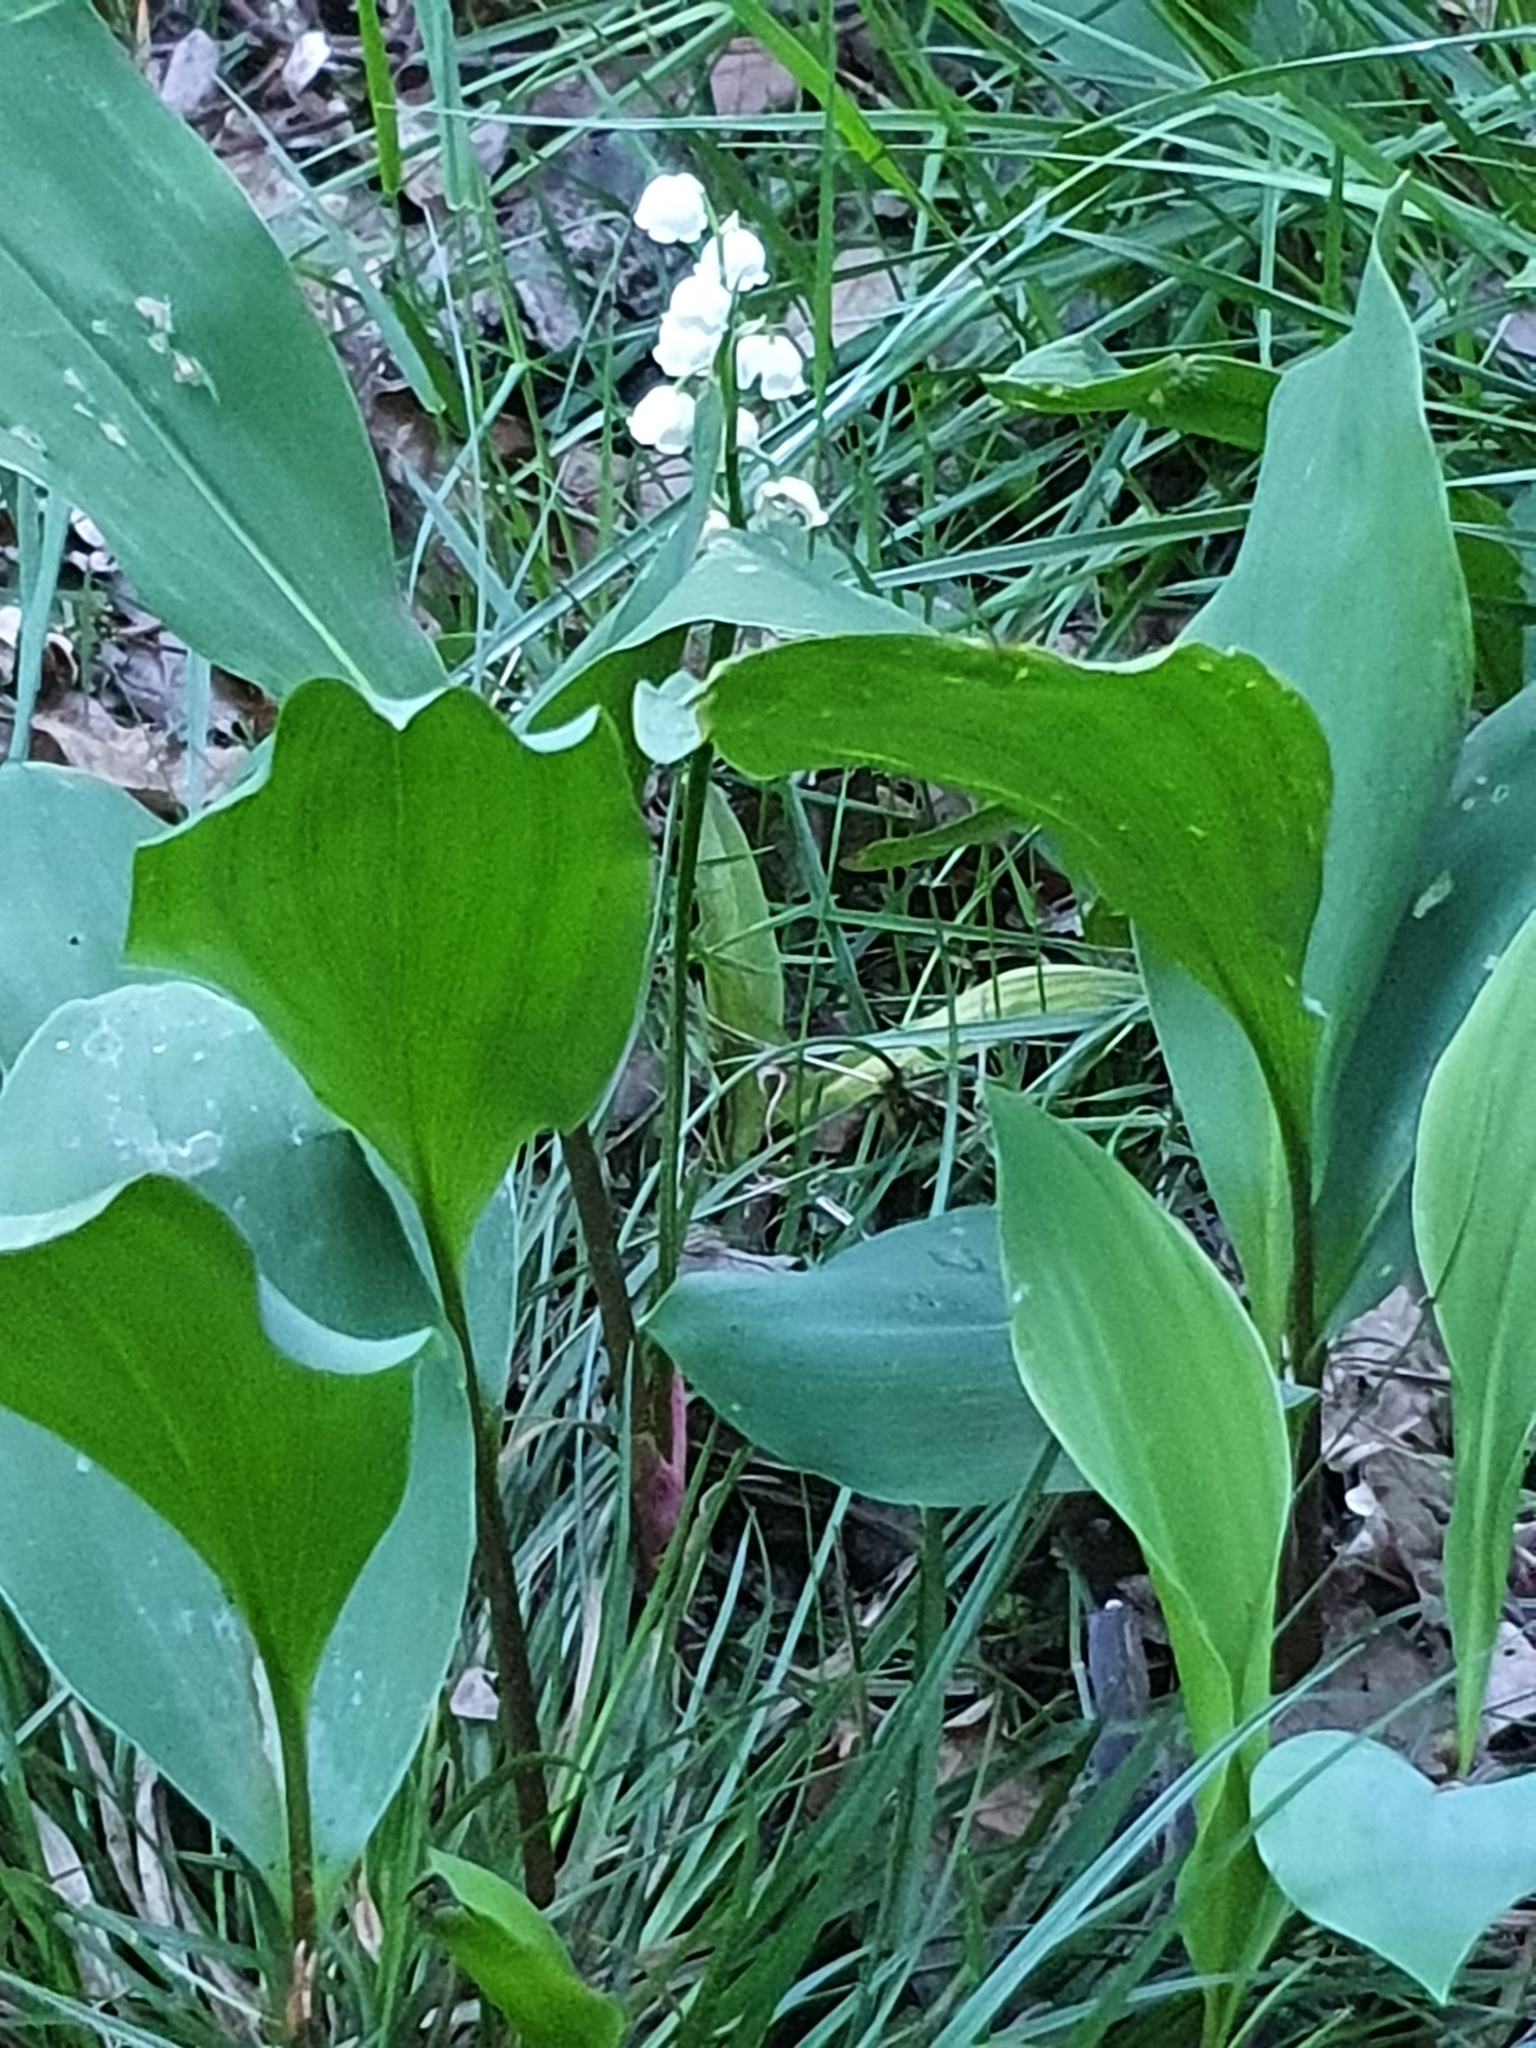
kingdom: Plantae
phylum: Tracheophyta
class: Liliopsida
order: Asparagales
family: Asparagaceae
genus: Convallaria
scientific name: Convallaria majalis
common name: Lily-of-the-valley
